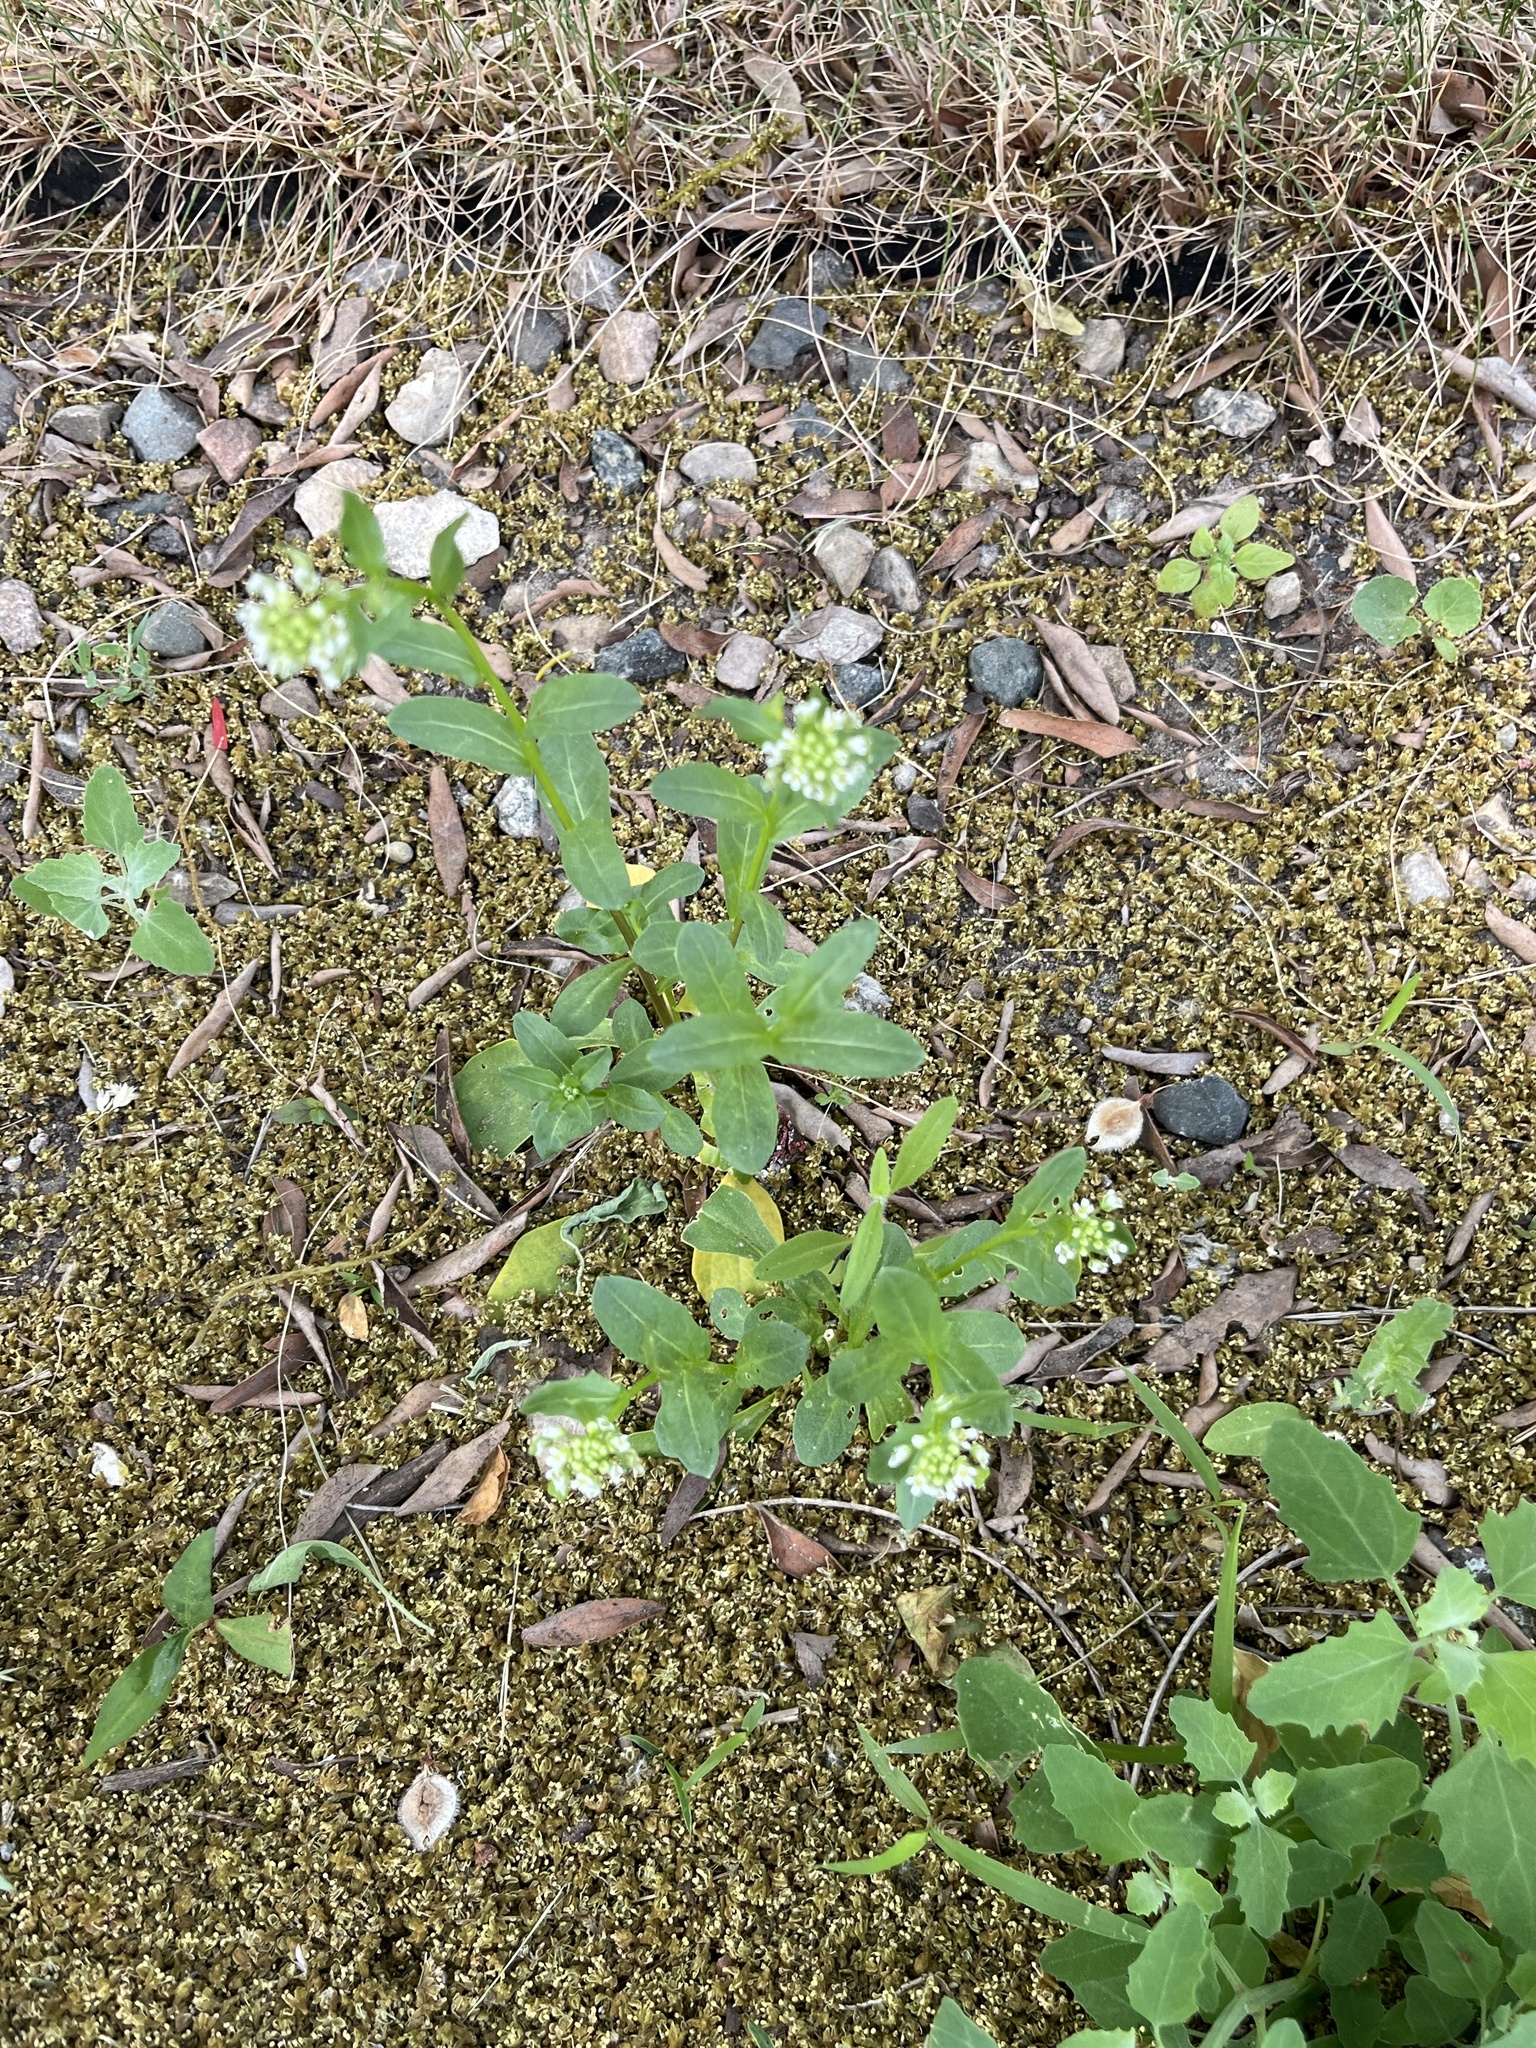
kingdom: Plantae
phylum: Tracheophyta
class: Magnoliopsida
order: Brassicales
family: Brassicaceae
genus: Thlaspi
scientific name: Thlaspi arvense
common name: Field pennycress
